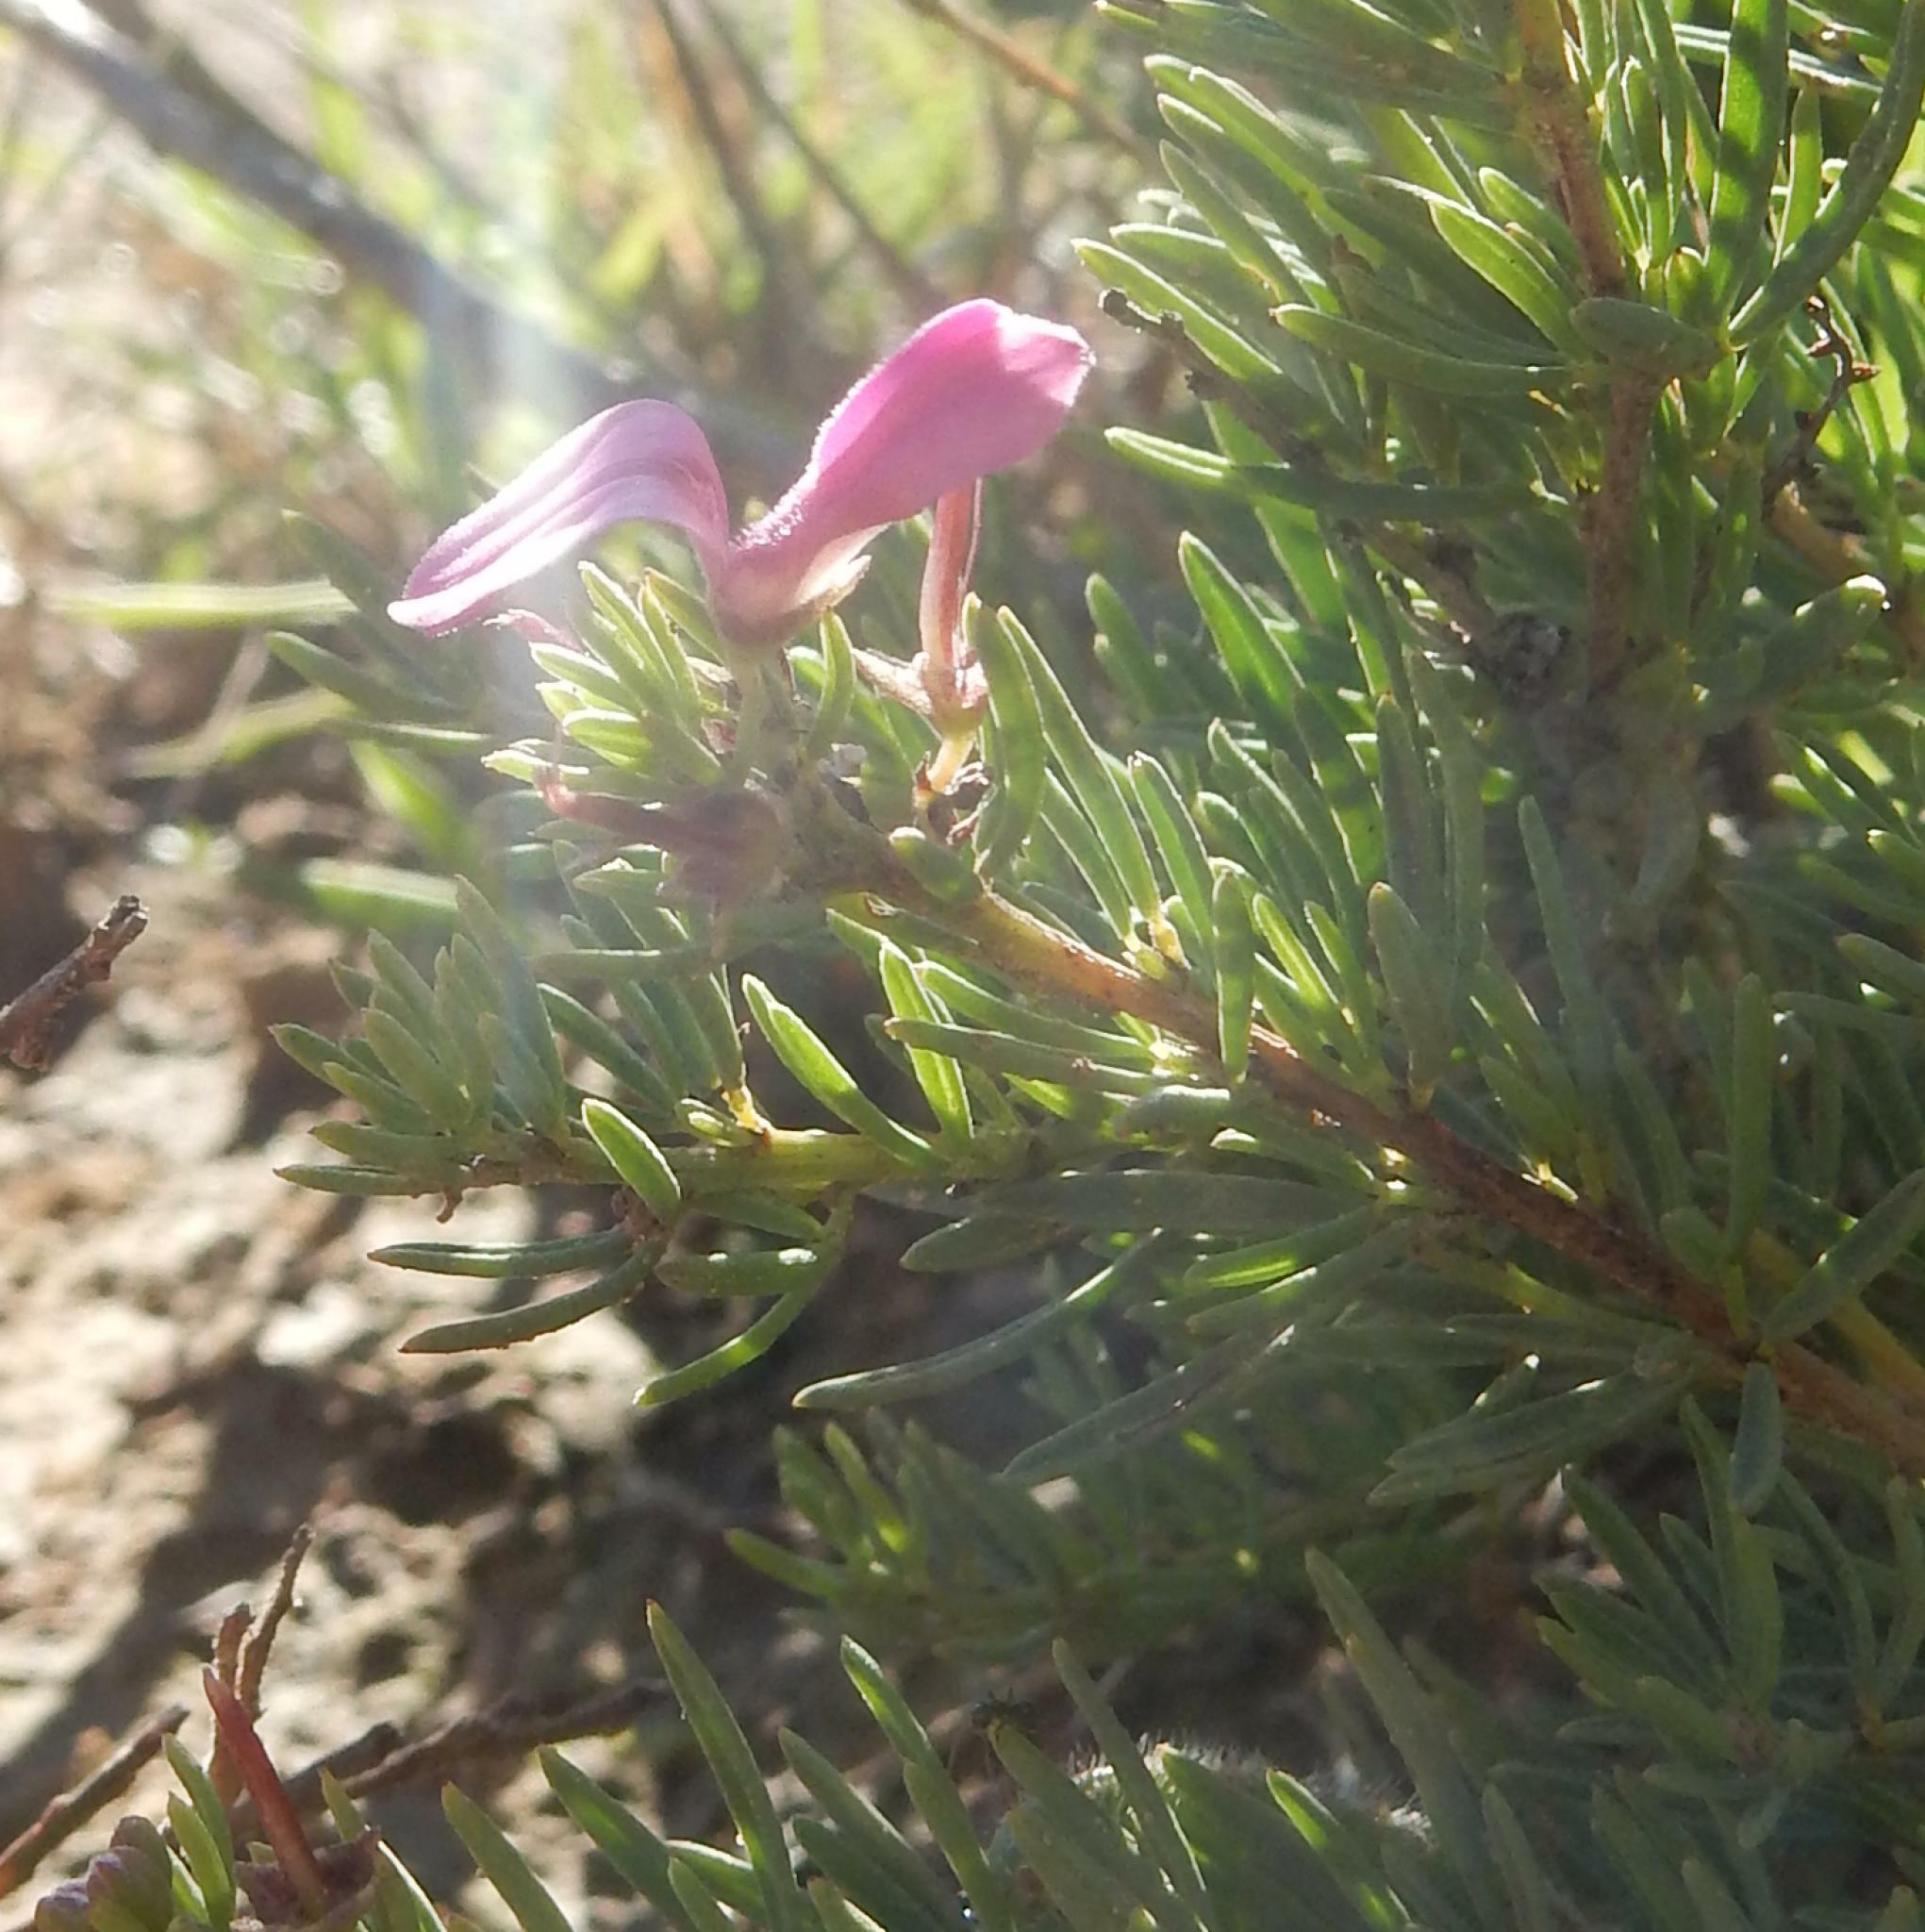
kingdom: Plantae
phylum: Tracheophyta
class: Magnoliopsida
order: Fabales
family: Fabaceae
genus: Indigofera
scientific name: Indigofera angustata
